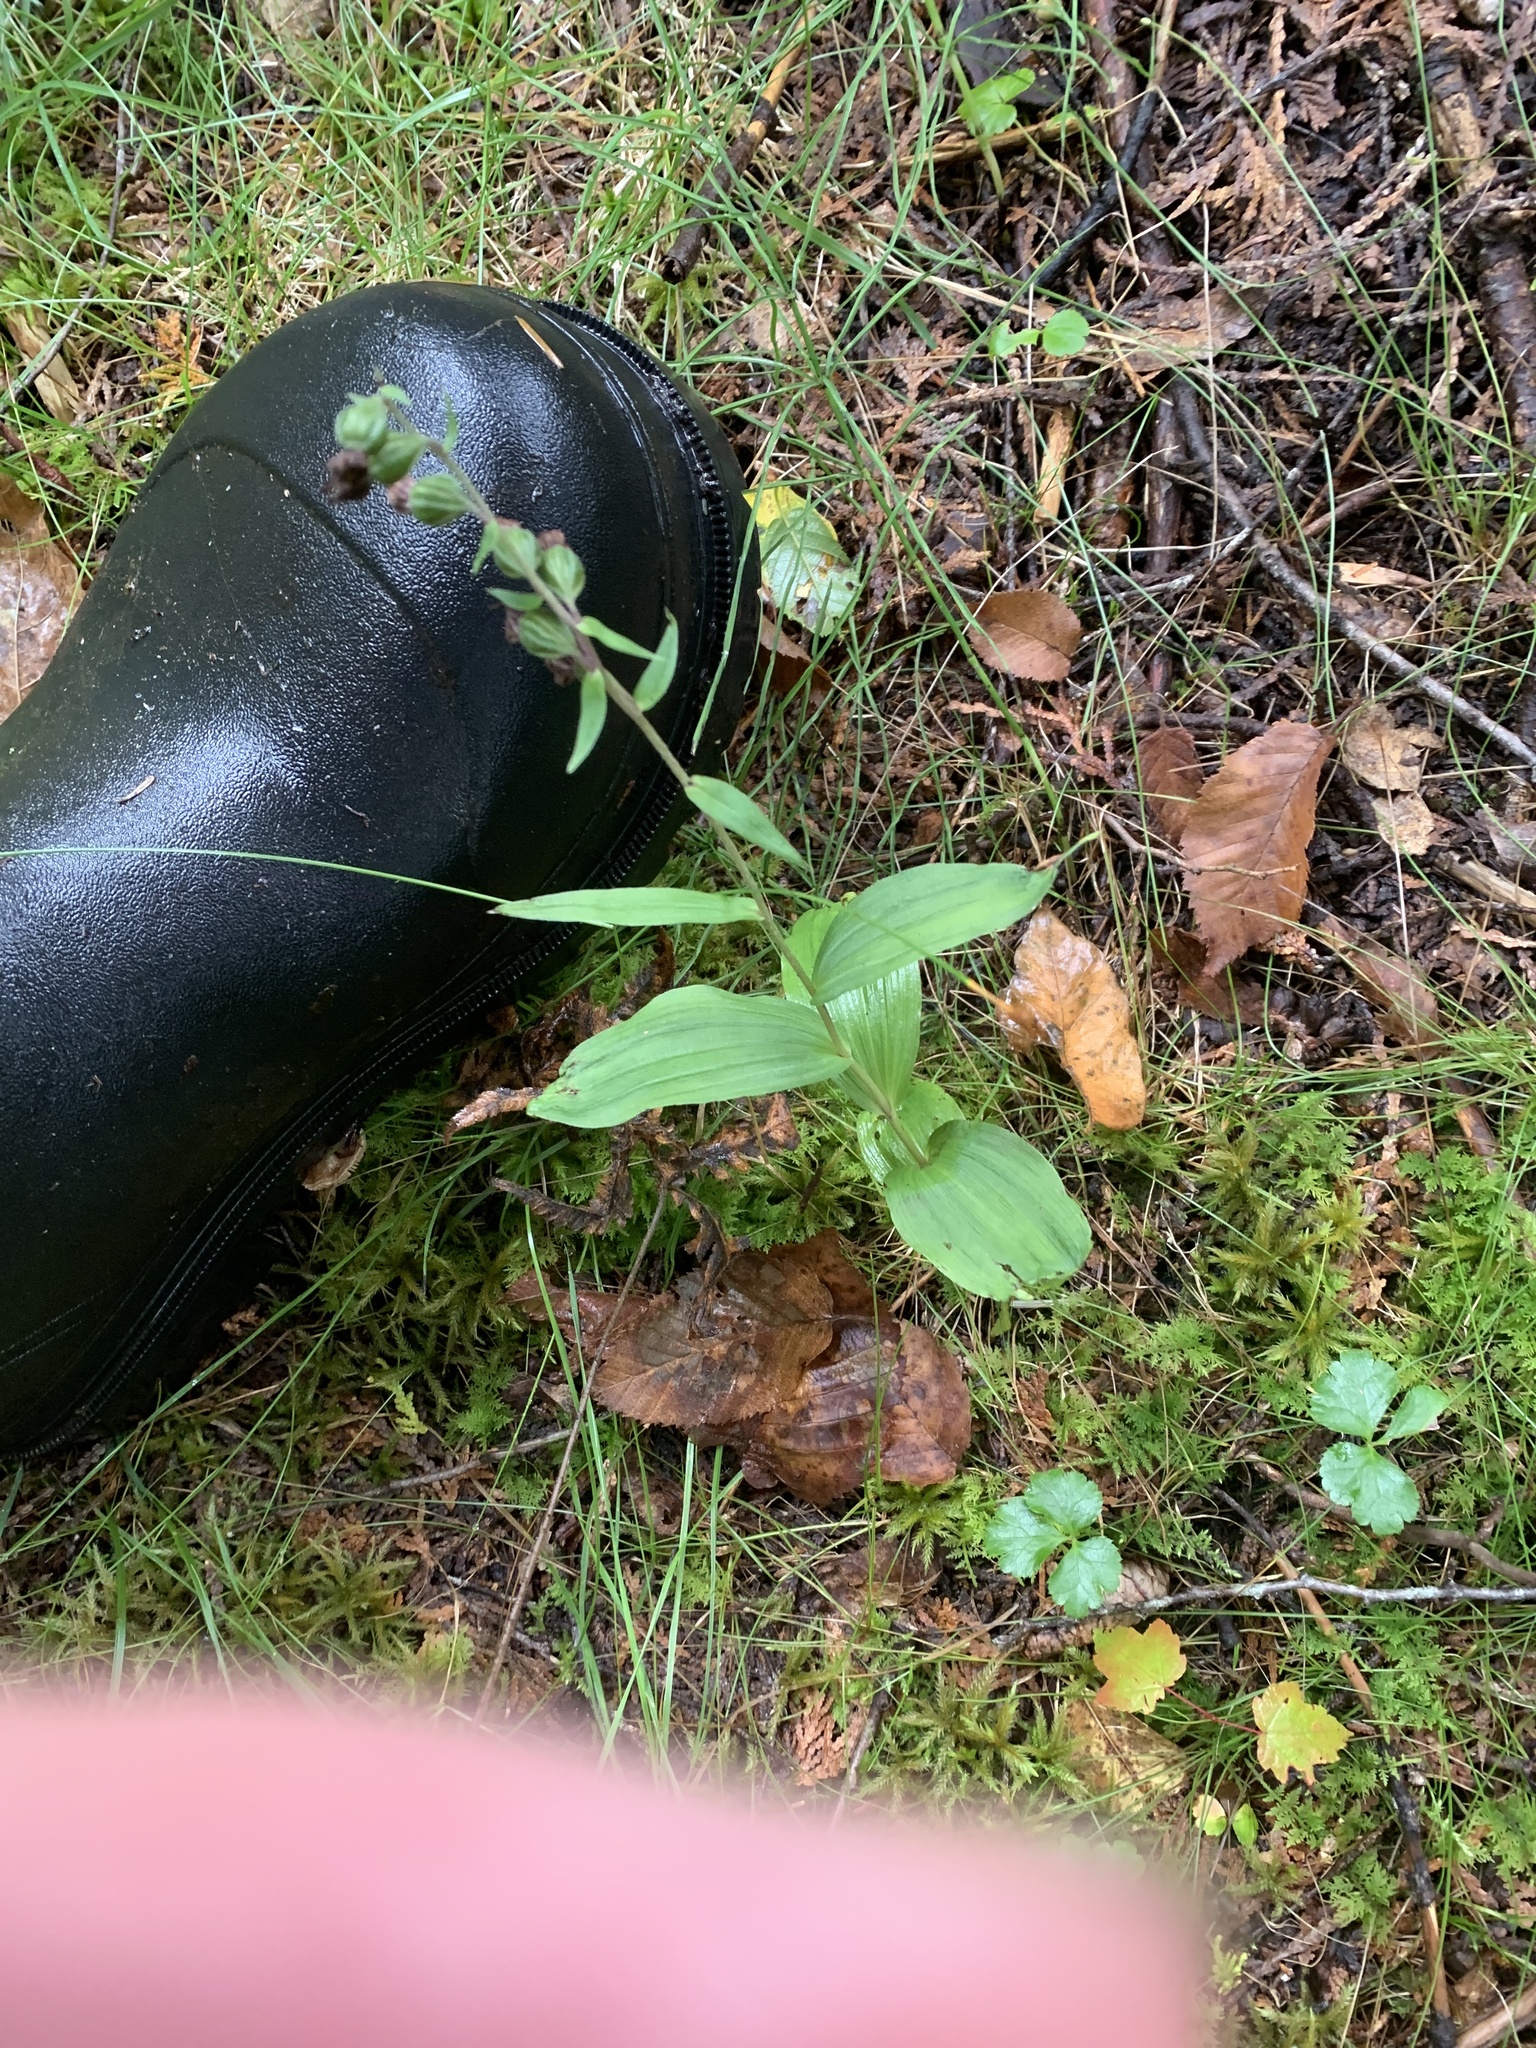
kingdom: Plantae
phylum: Tracheophyta
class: Liliopsida
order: Asparagales
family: Orchidaceae
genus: Epipactis
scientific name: Epipactis helleborine
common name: Broad-leaved helleborine
